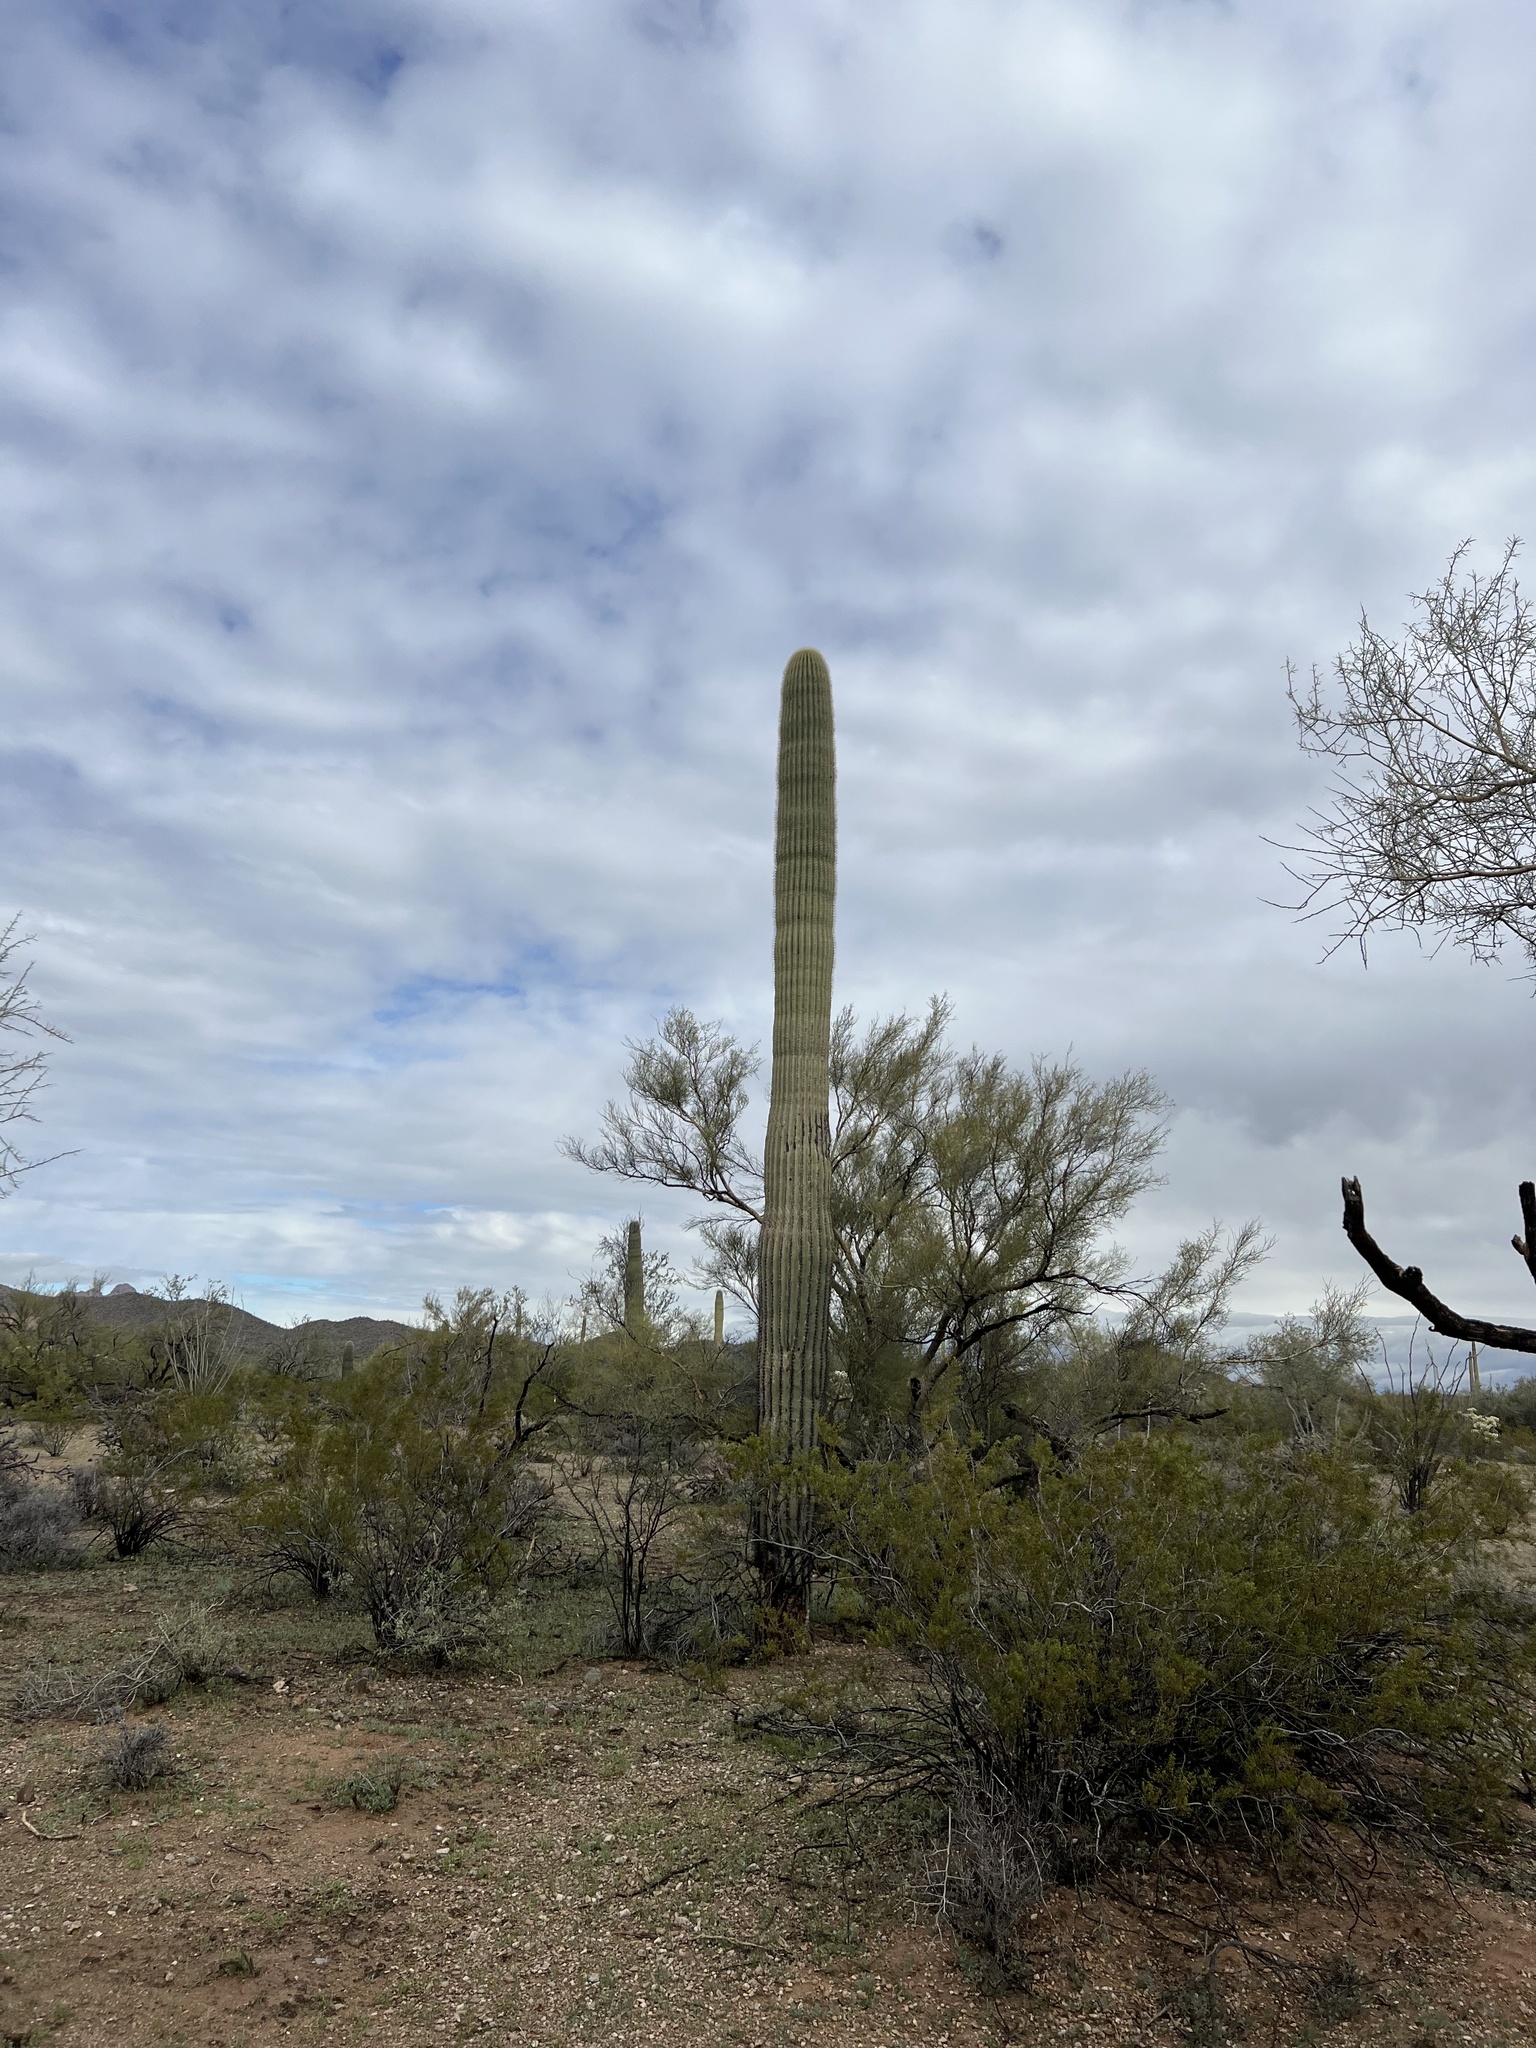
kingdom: Plantae
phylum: Tracheophyta
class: Magnoliopsida
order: Caryophyllales
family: Cactaceae
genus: Carnegiea
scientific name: Carnegiea gigantea
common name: Saguaro
